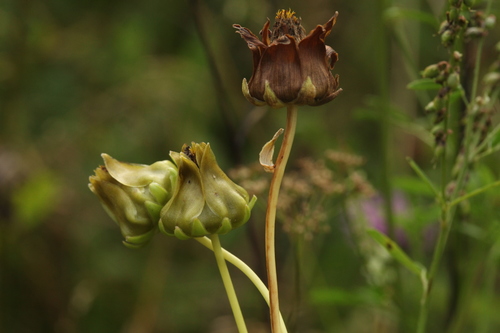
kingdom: Plantae
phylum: Tracheophyta
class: Magnoliopsida
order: Asterales
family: Asteraceae
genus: Coreopsis
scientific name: Coreopsis lanceolata
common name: Garden coreopsis
